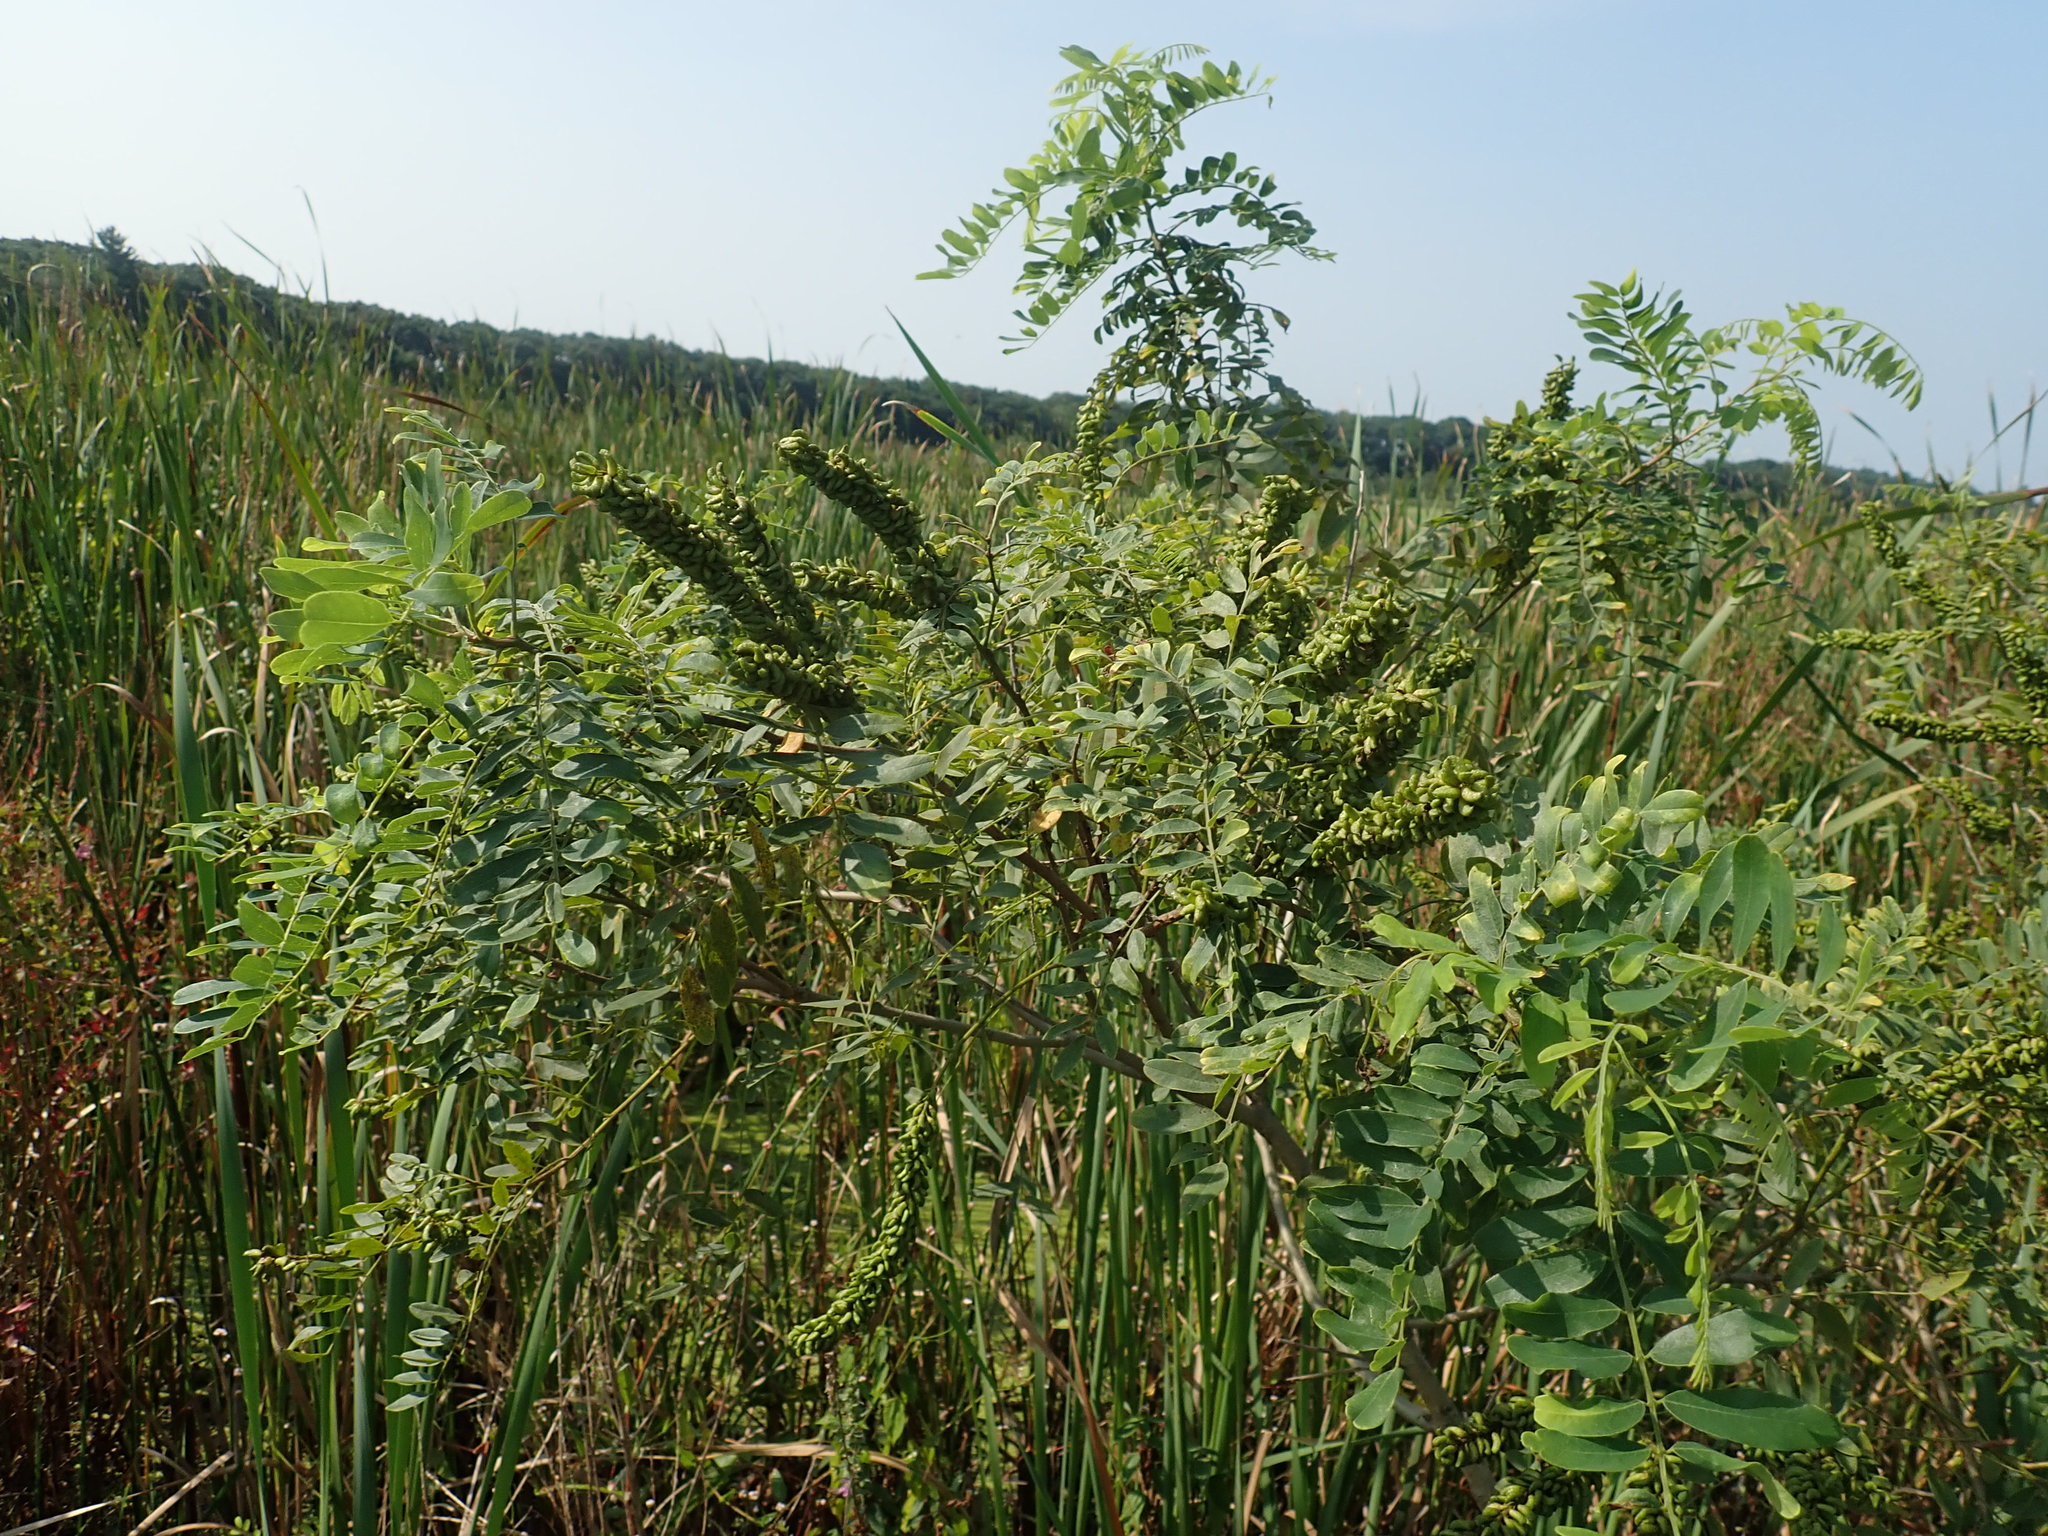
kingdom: Plantae
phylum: Tracheophyta
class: Magnoliopsida
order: Fabales
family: Fabaceae
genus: Amorpha
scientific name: Amorpha fruticosa
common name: False indigo
